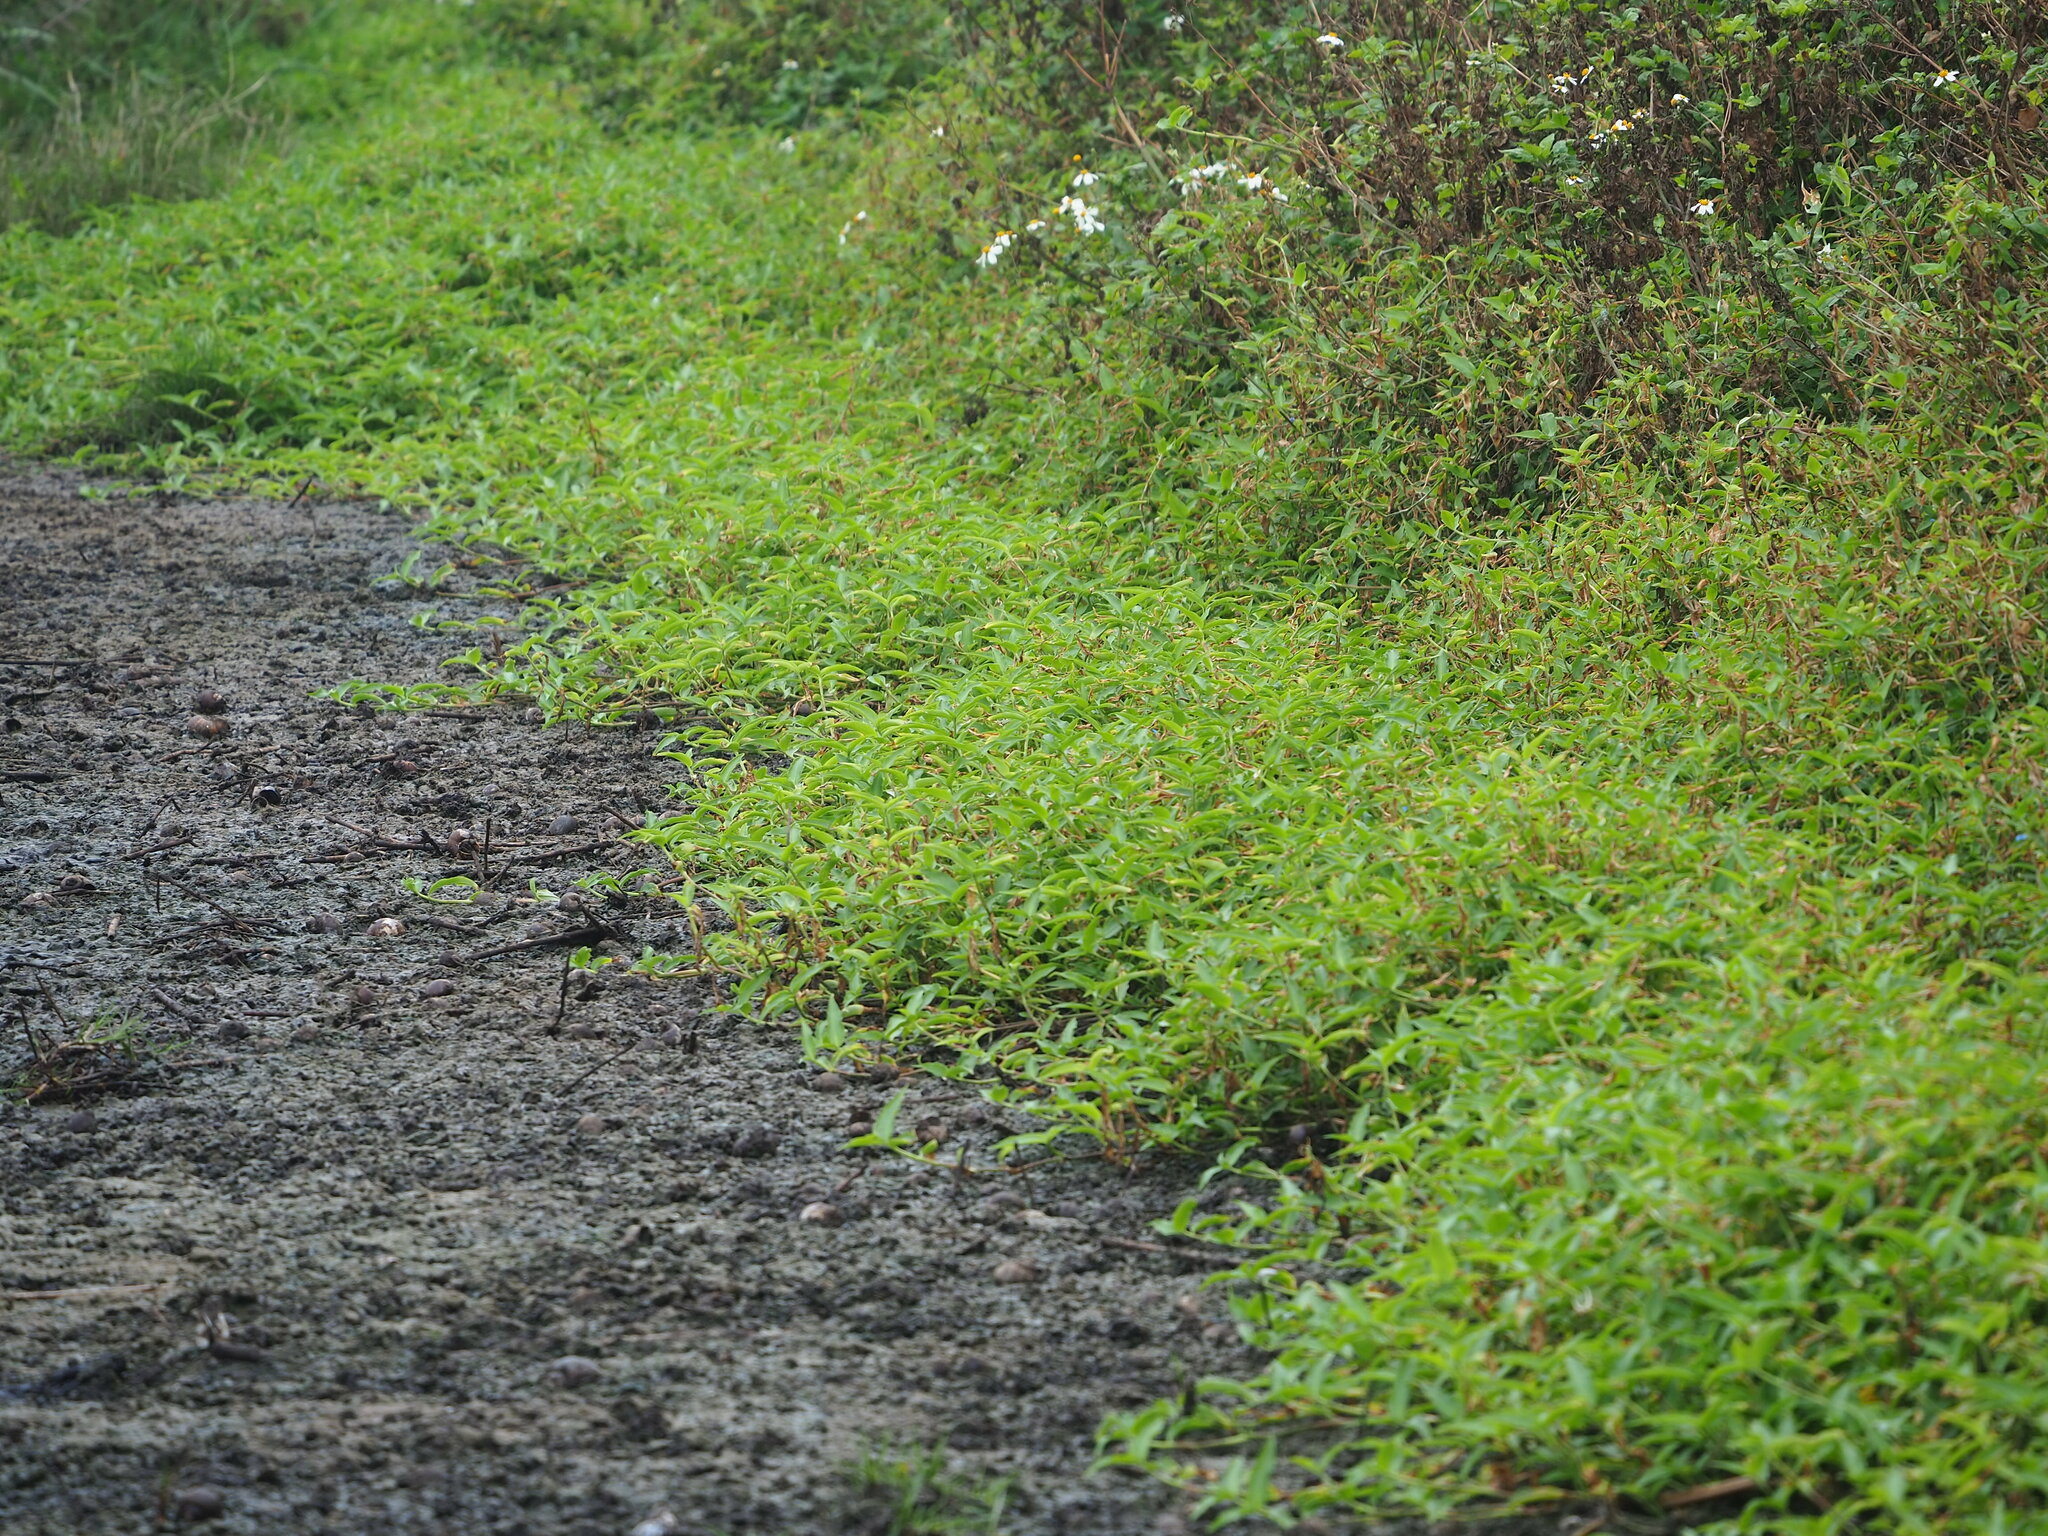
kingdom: Plantae
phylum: Tracheophyta
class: Liliopsida
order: Commelinales
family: Commelinaceae
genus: Commelina
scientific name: Commelina diffusa
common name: Climbing dayflower
